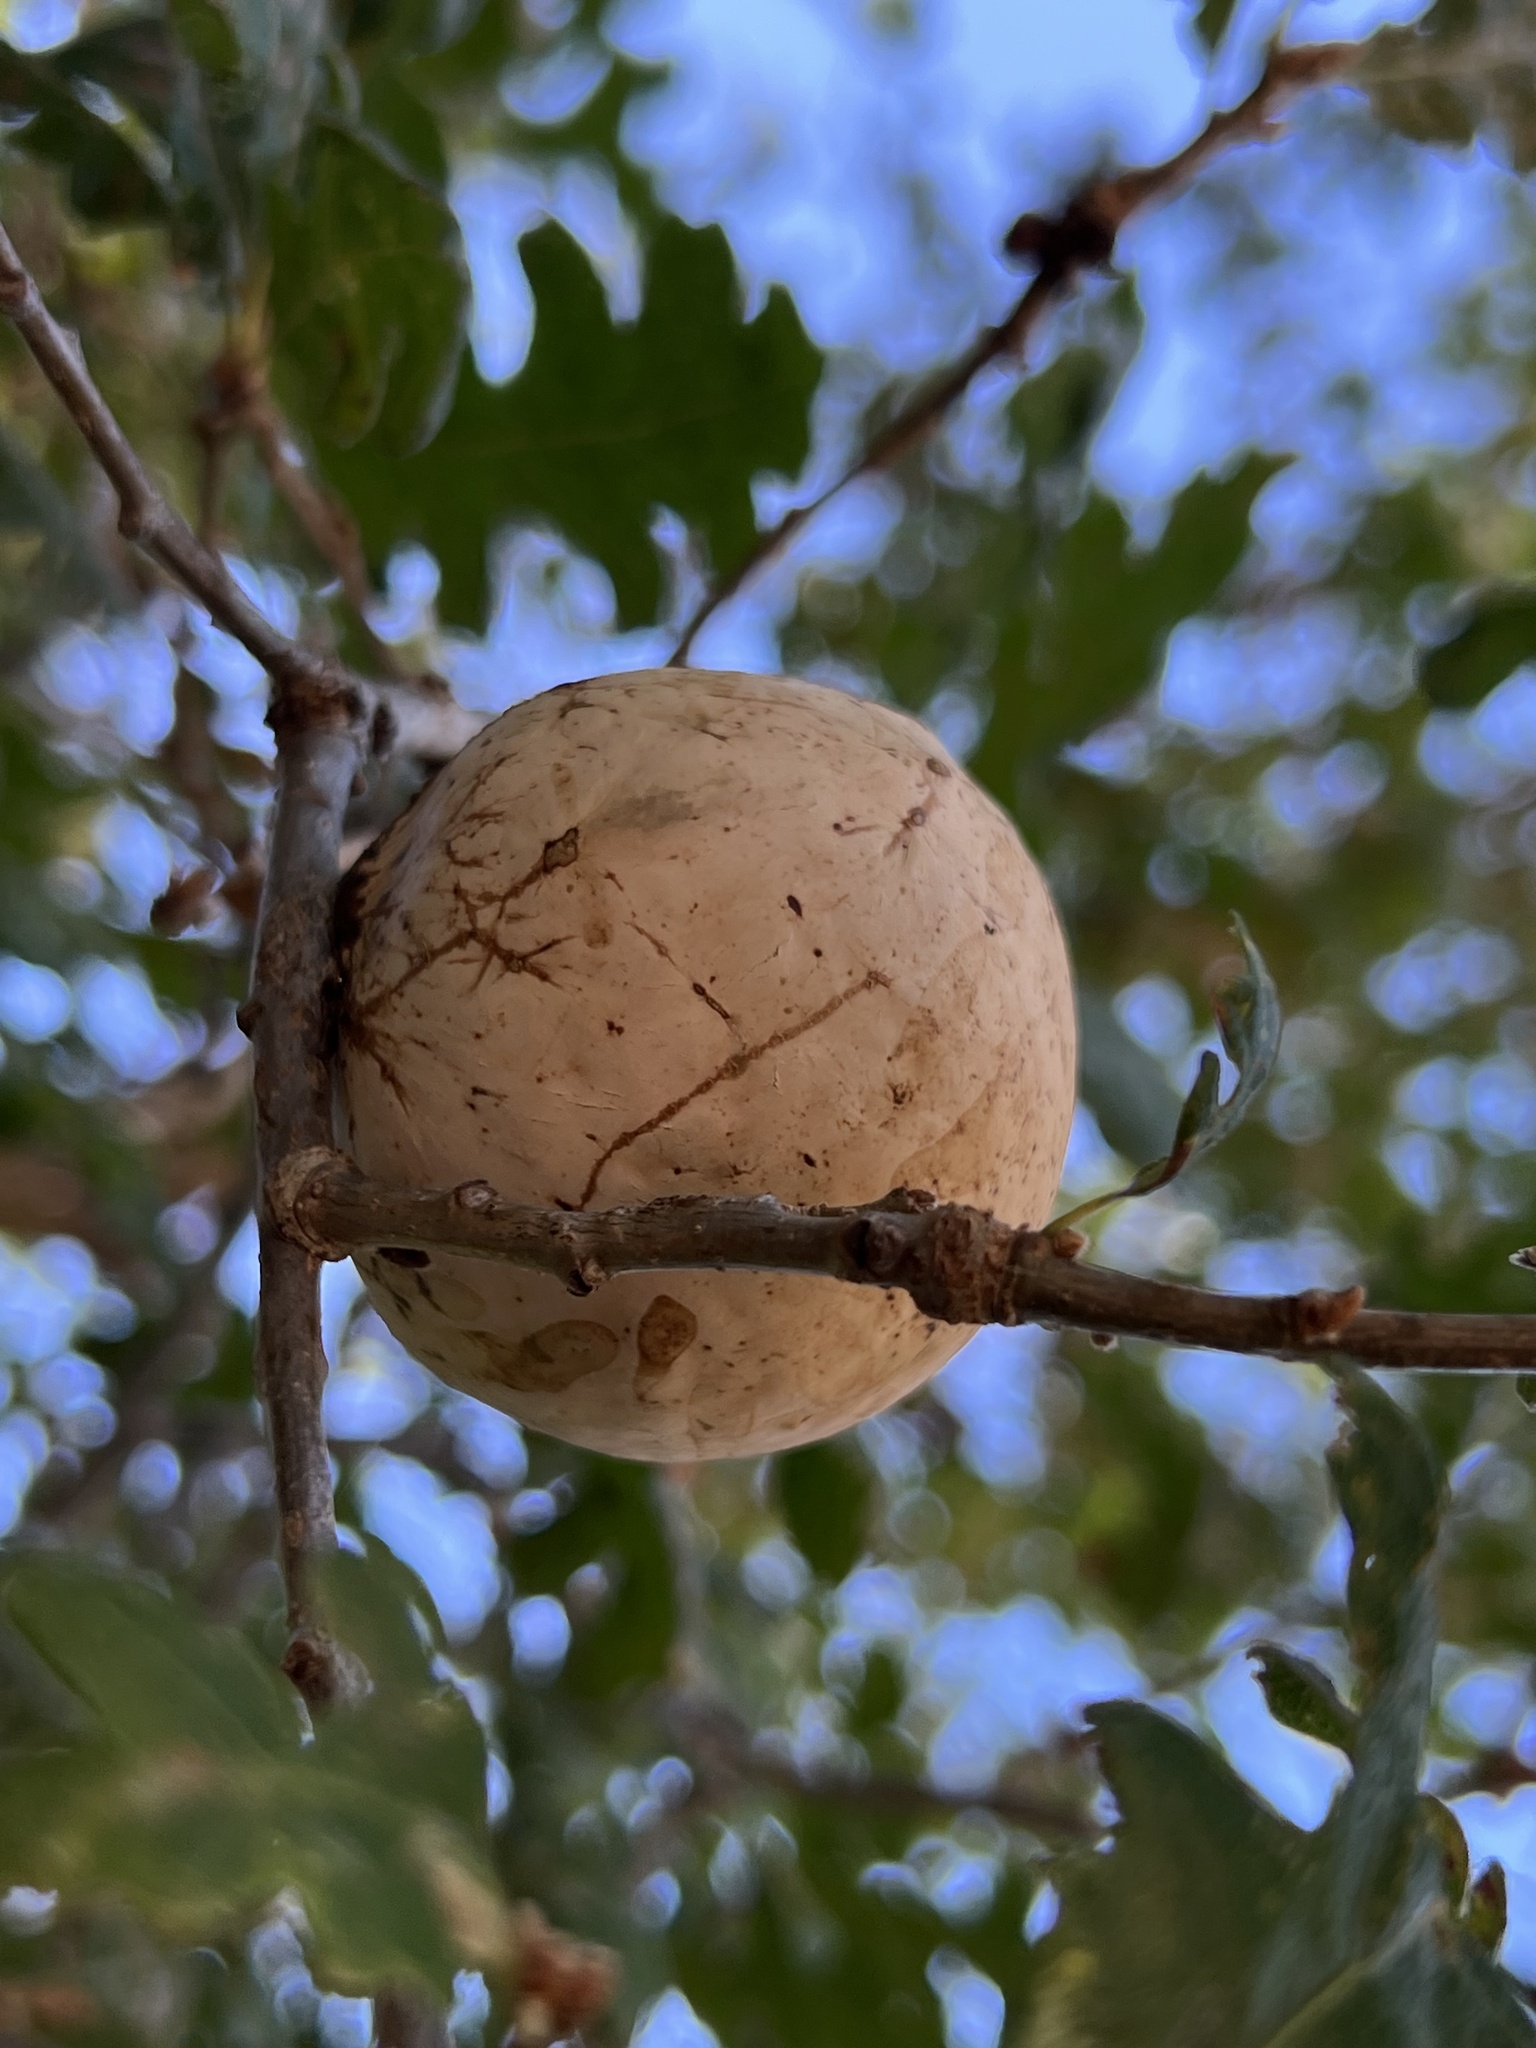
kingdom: Animalia
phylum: Arthropoda
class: Insecta
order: Hymenoptera
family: Cynipidae
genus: Andricus
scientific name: Andricus quercuscalifornicus
